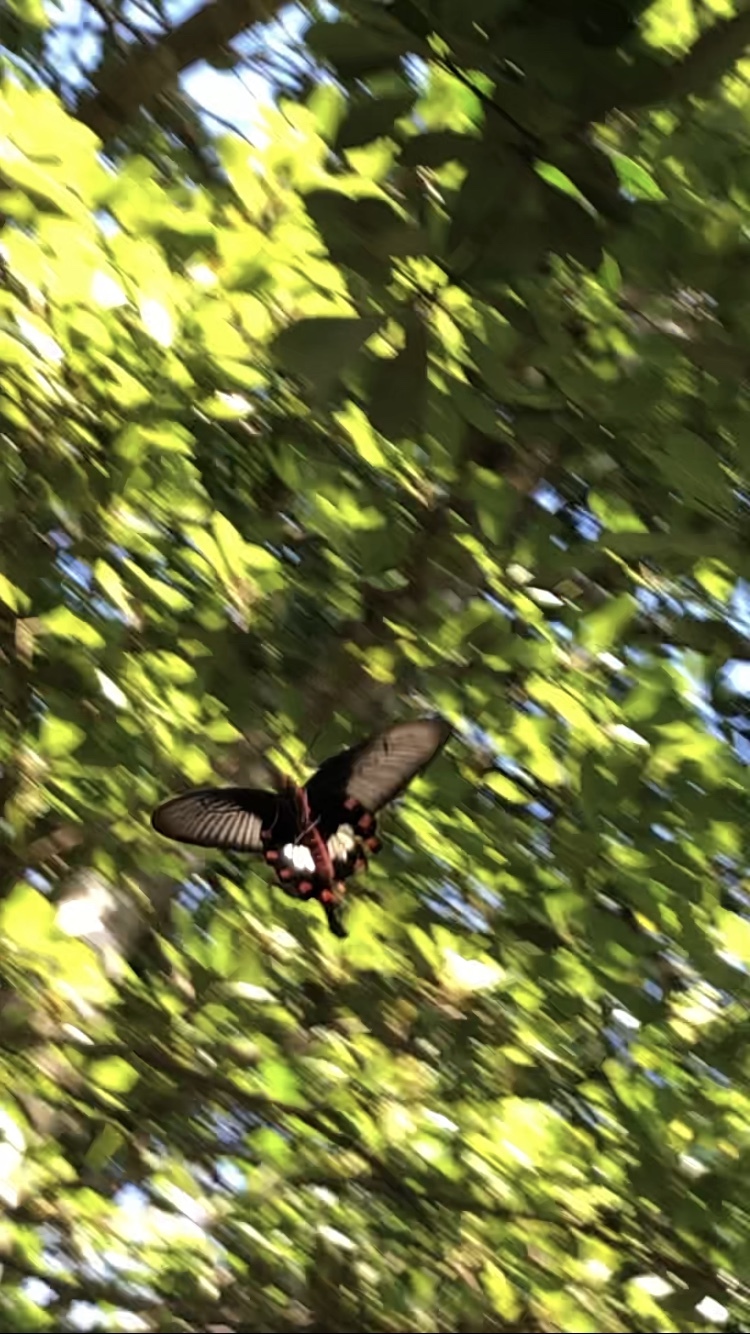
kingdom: Animalia
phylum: Arthropoda
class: Insecta
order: Lepidoptera
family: Papilionidae
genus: Pachliopta
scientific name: Pachliopta aristolochiae
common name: Common rose
